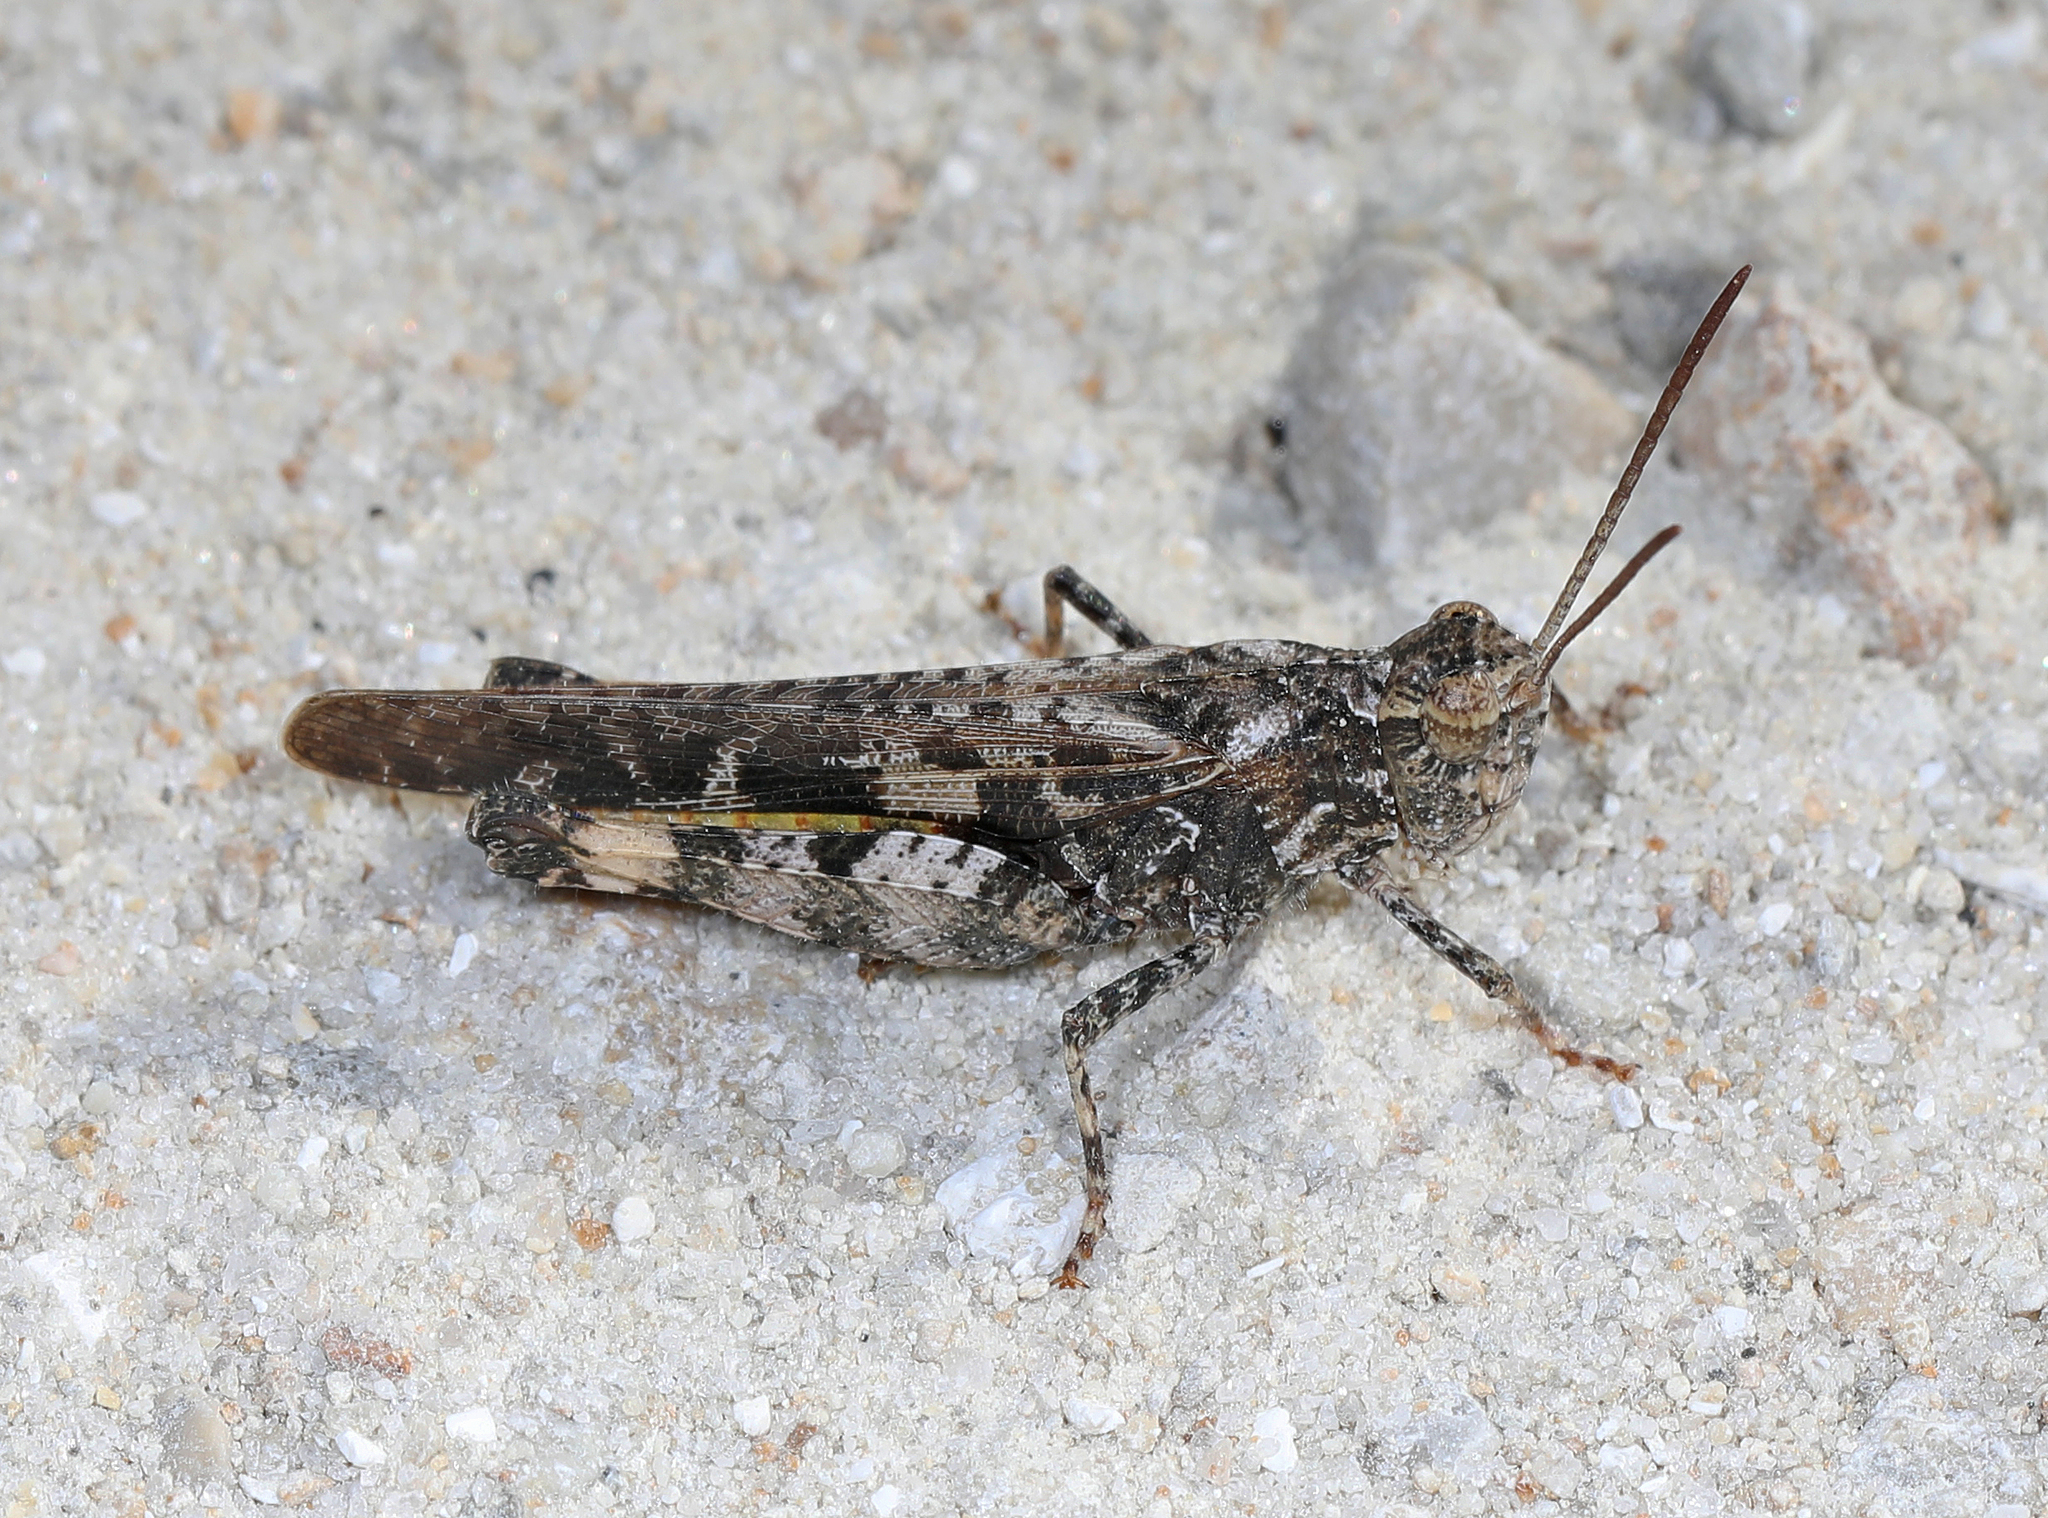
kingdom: Animalia
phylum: Arthropoda
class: Insecta
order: Orthoptera
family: Acrididae
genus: Chortophaga
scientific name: Chortophaga australior
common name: Southern green-striped grasshopper
